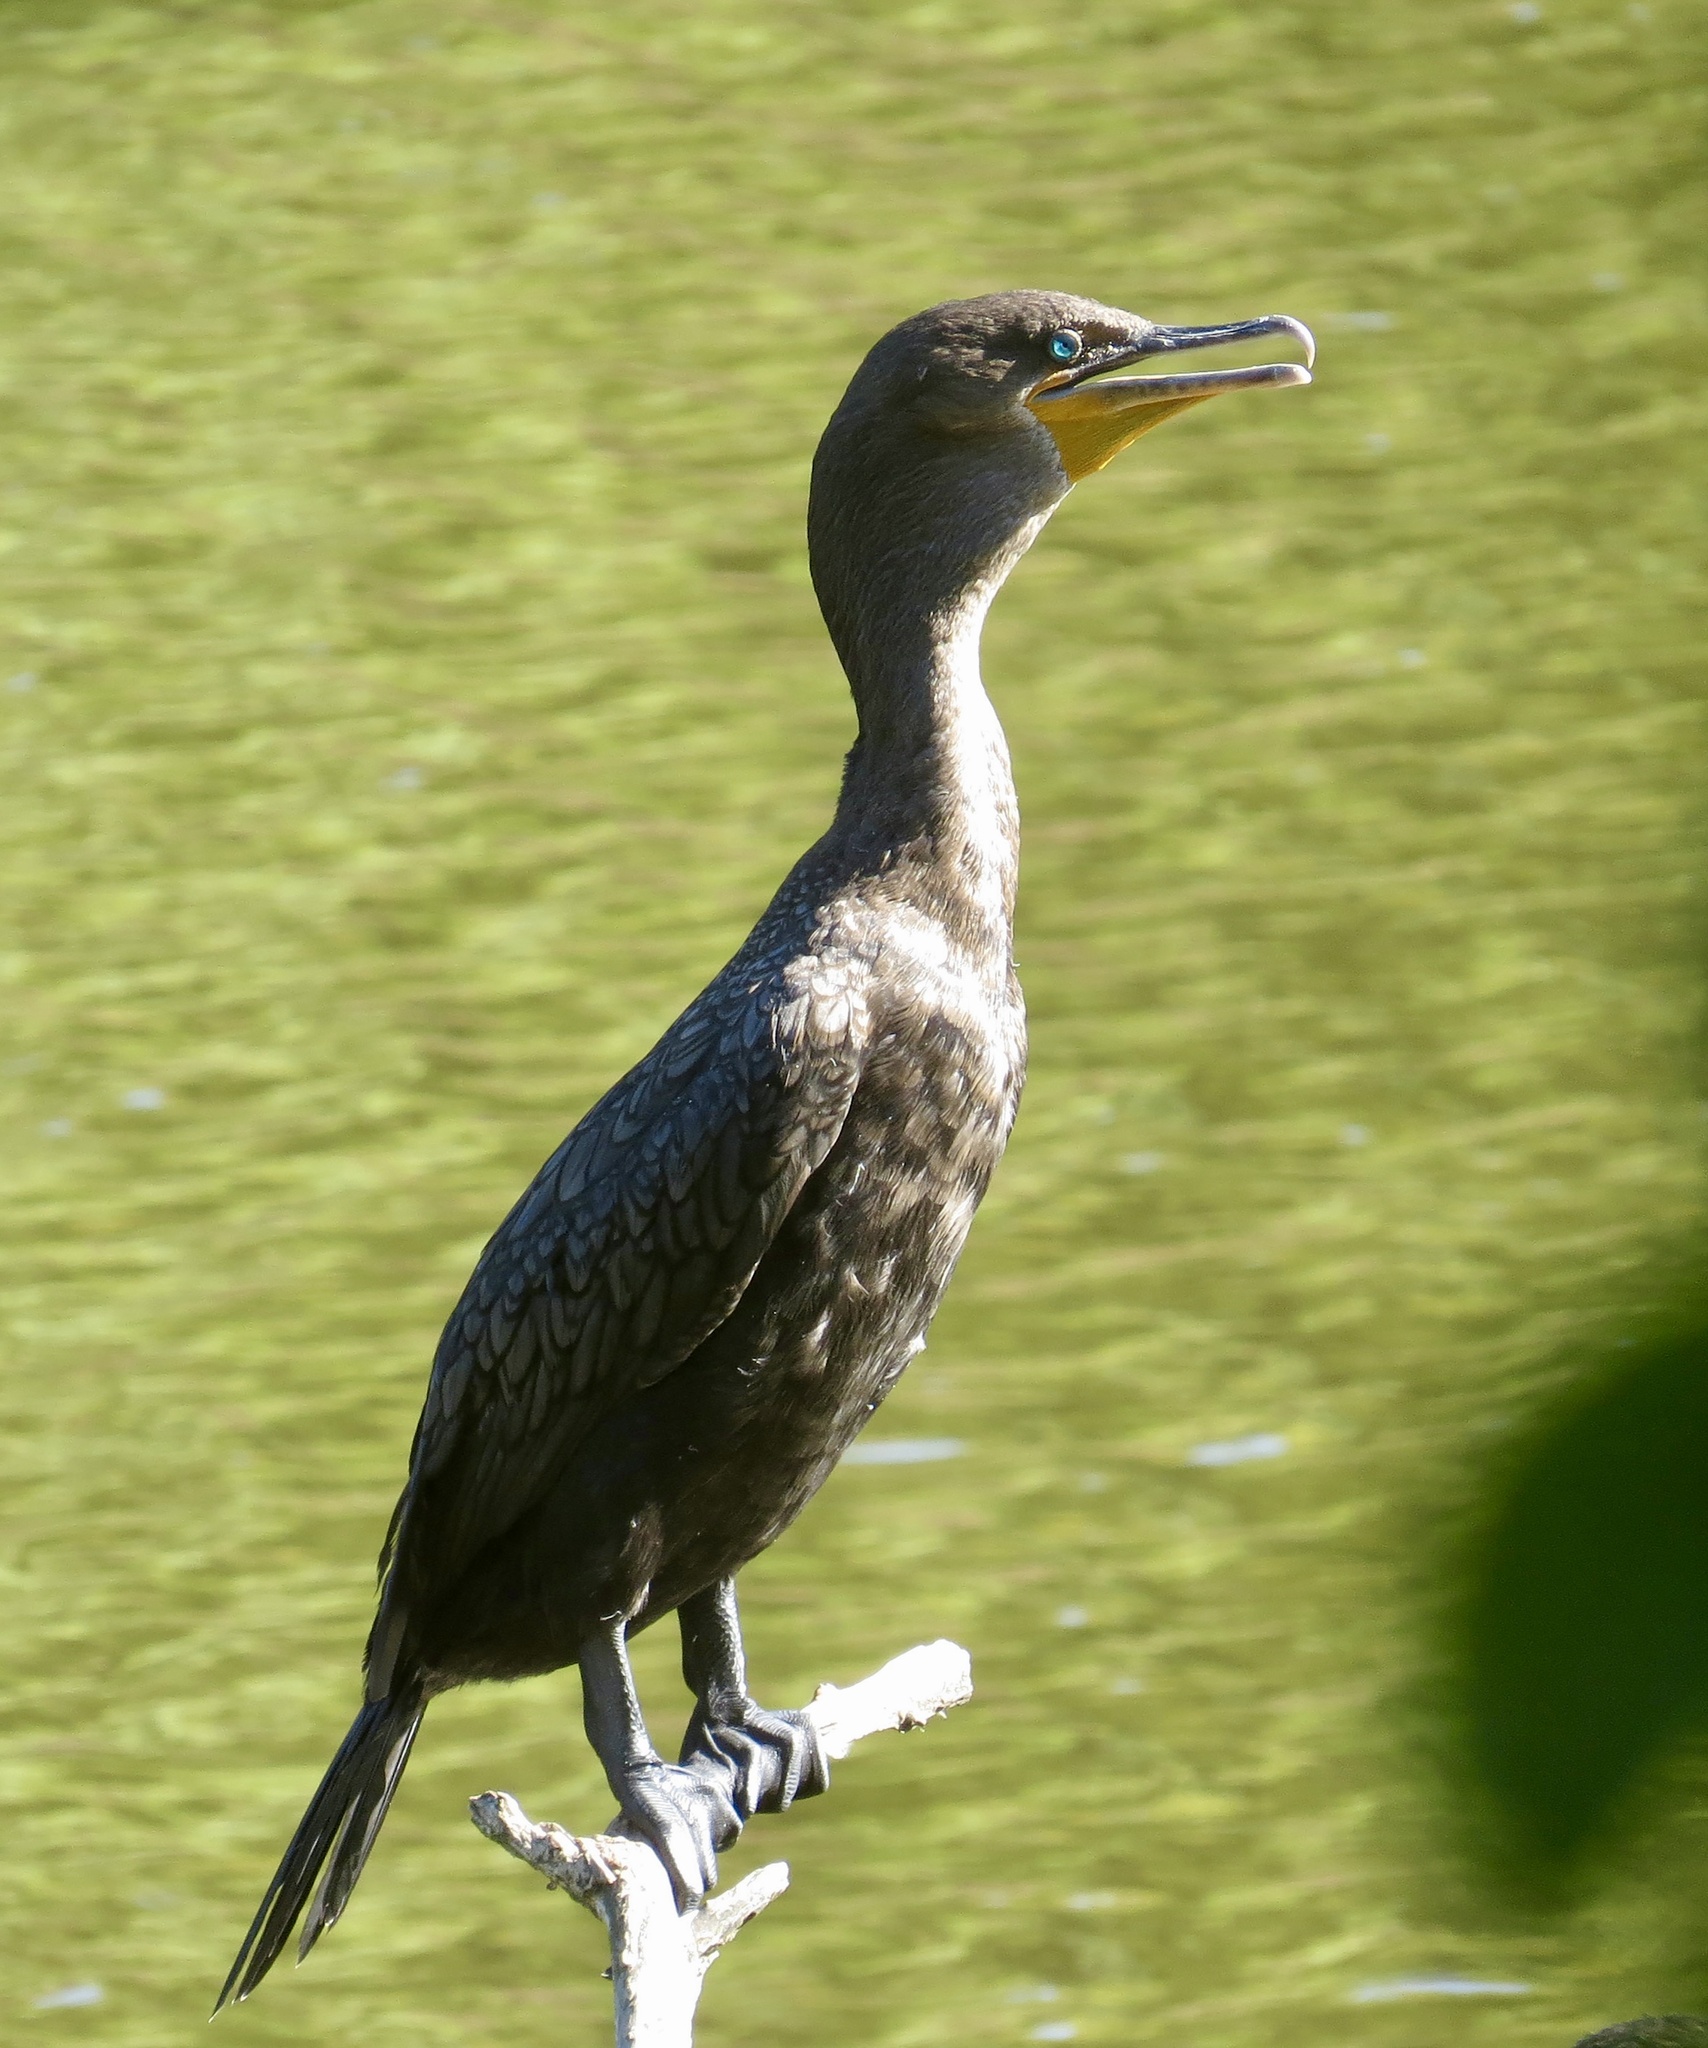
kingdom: Animalia
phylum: Chordata
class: Aves
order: Suliformes
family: Phalacrocoracidae
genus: Phalacrocorax
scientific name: Phalacrocorax auritus
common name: Double-crested cormorant
